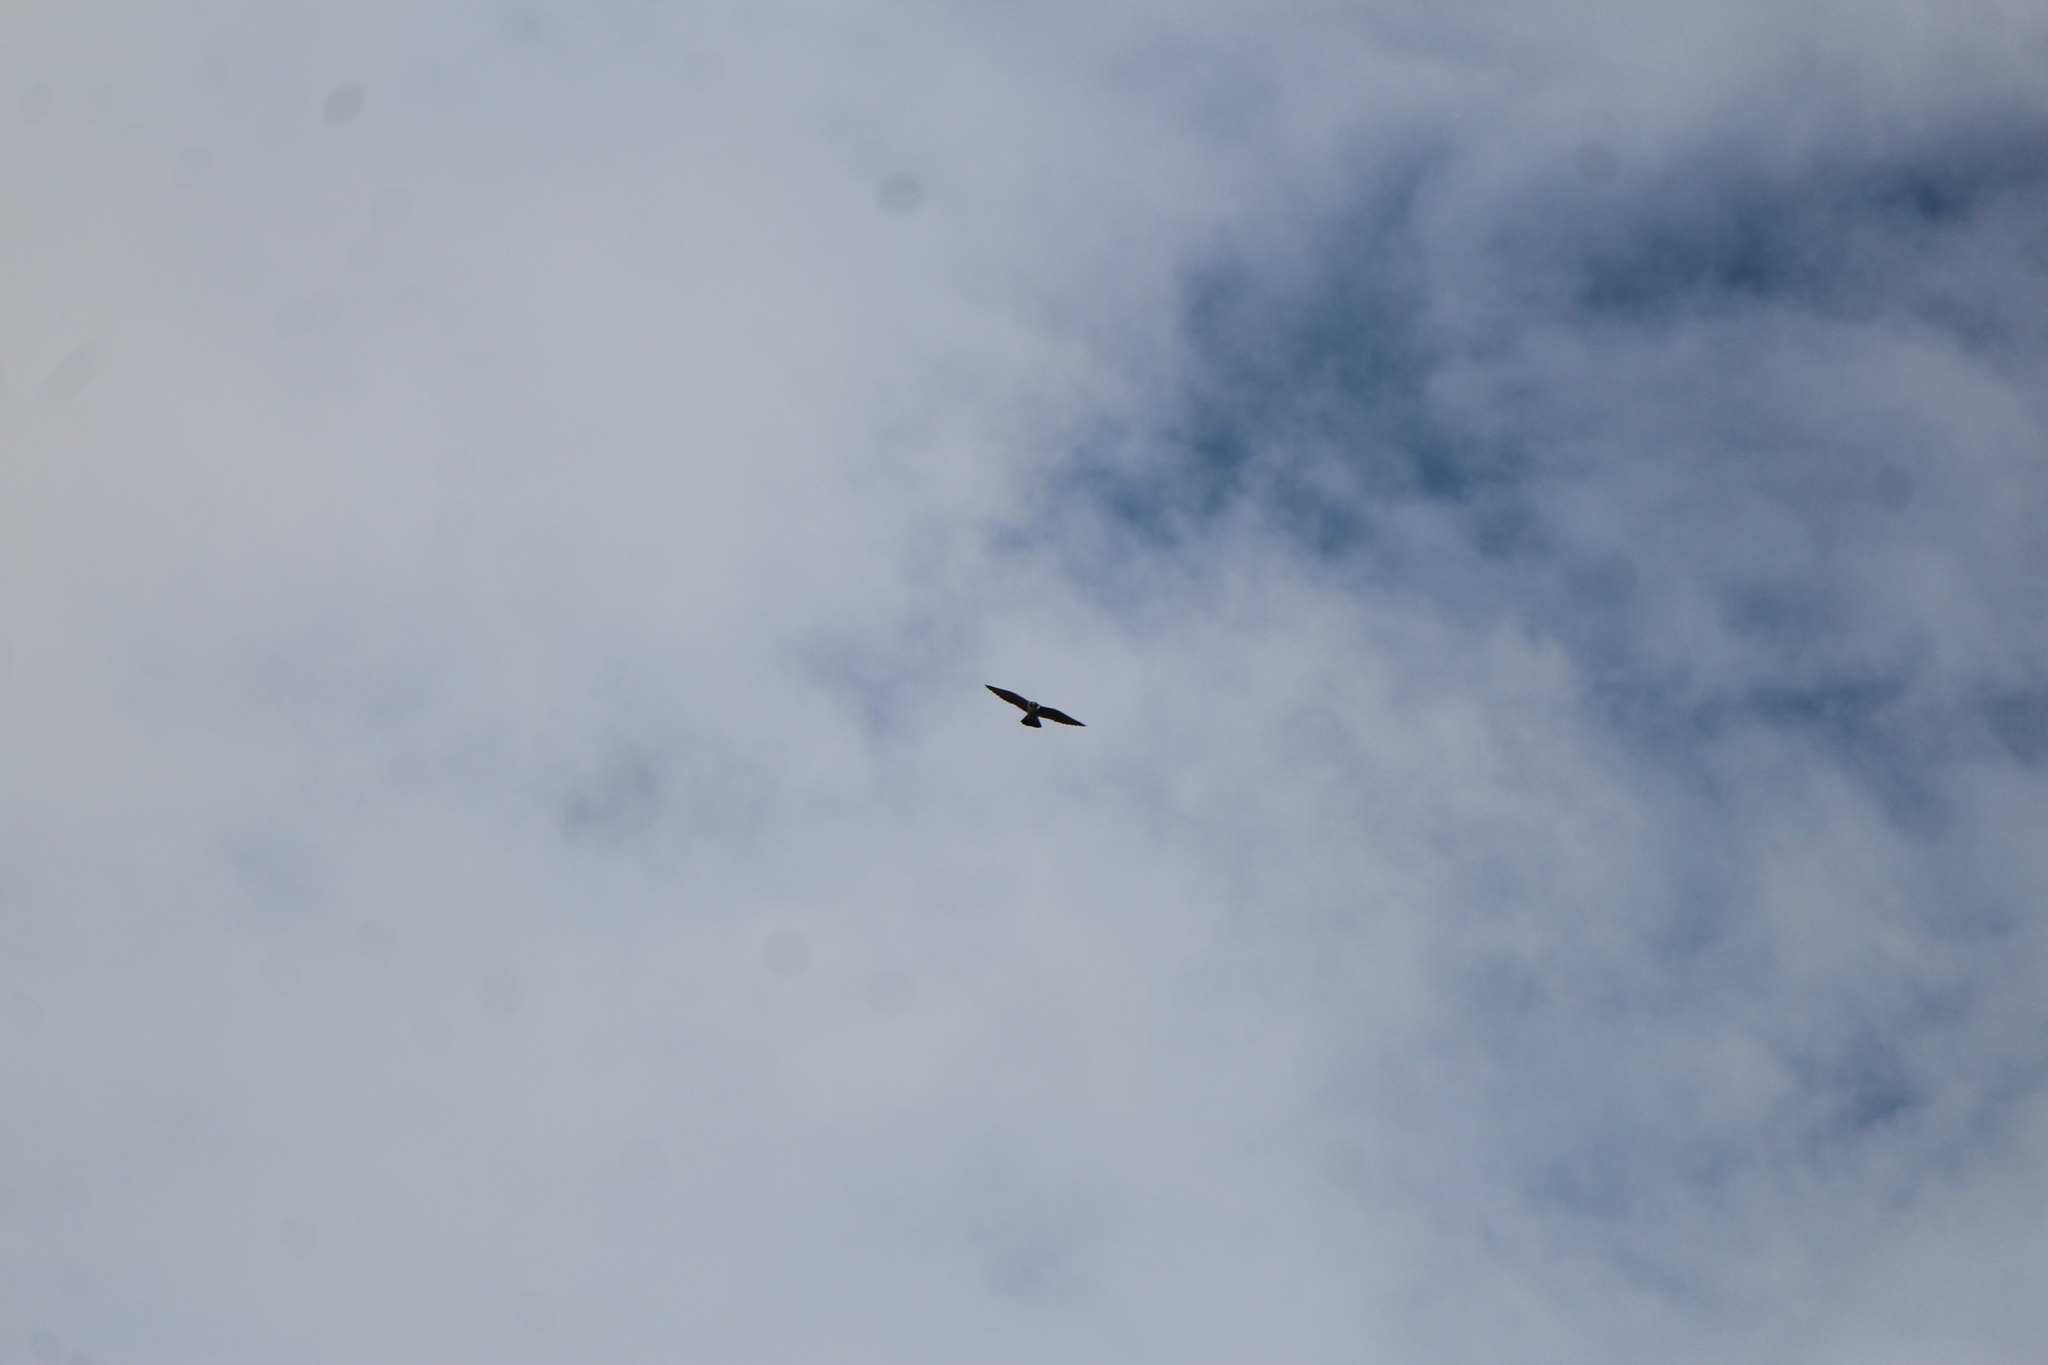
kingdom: Animalia
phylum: Chordata
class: Aves
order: Falconiformes
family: Falconidae
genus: Falco
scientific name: Falco peregrinus
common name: Peregrine falcon
